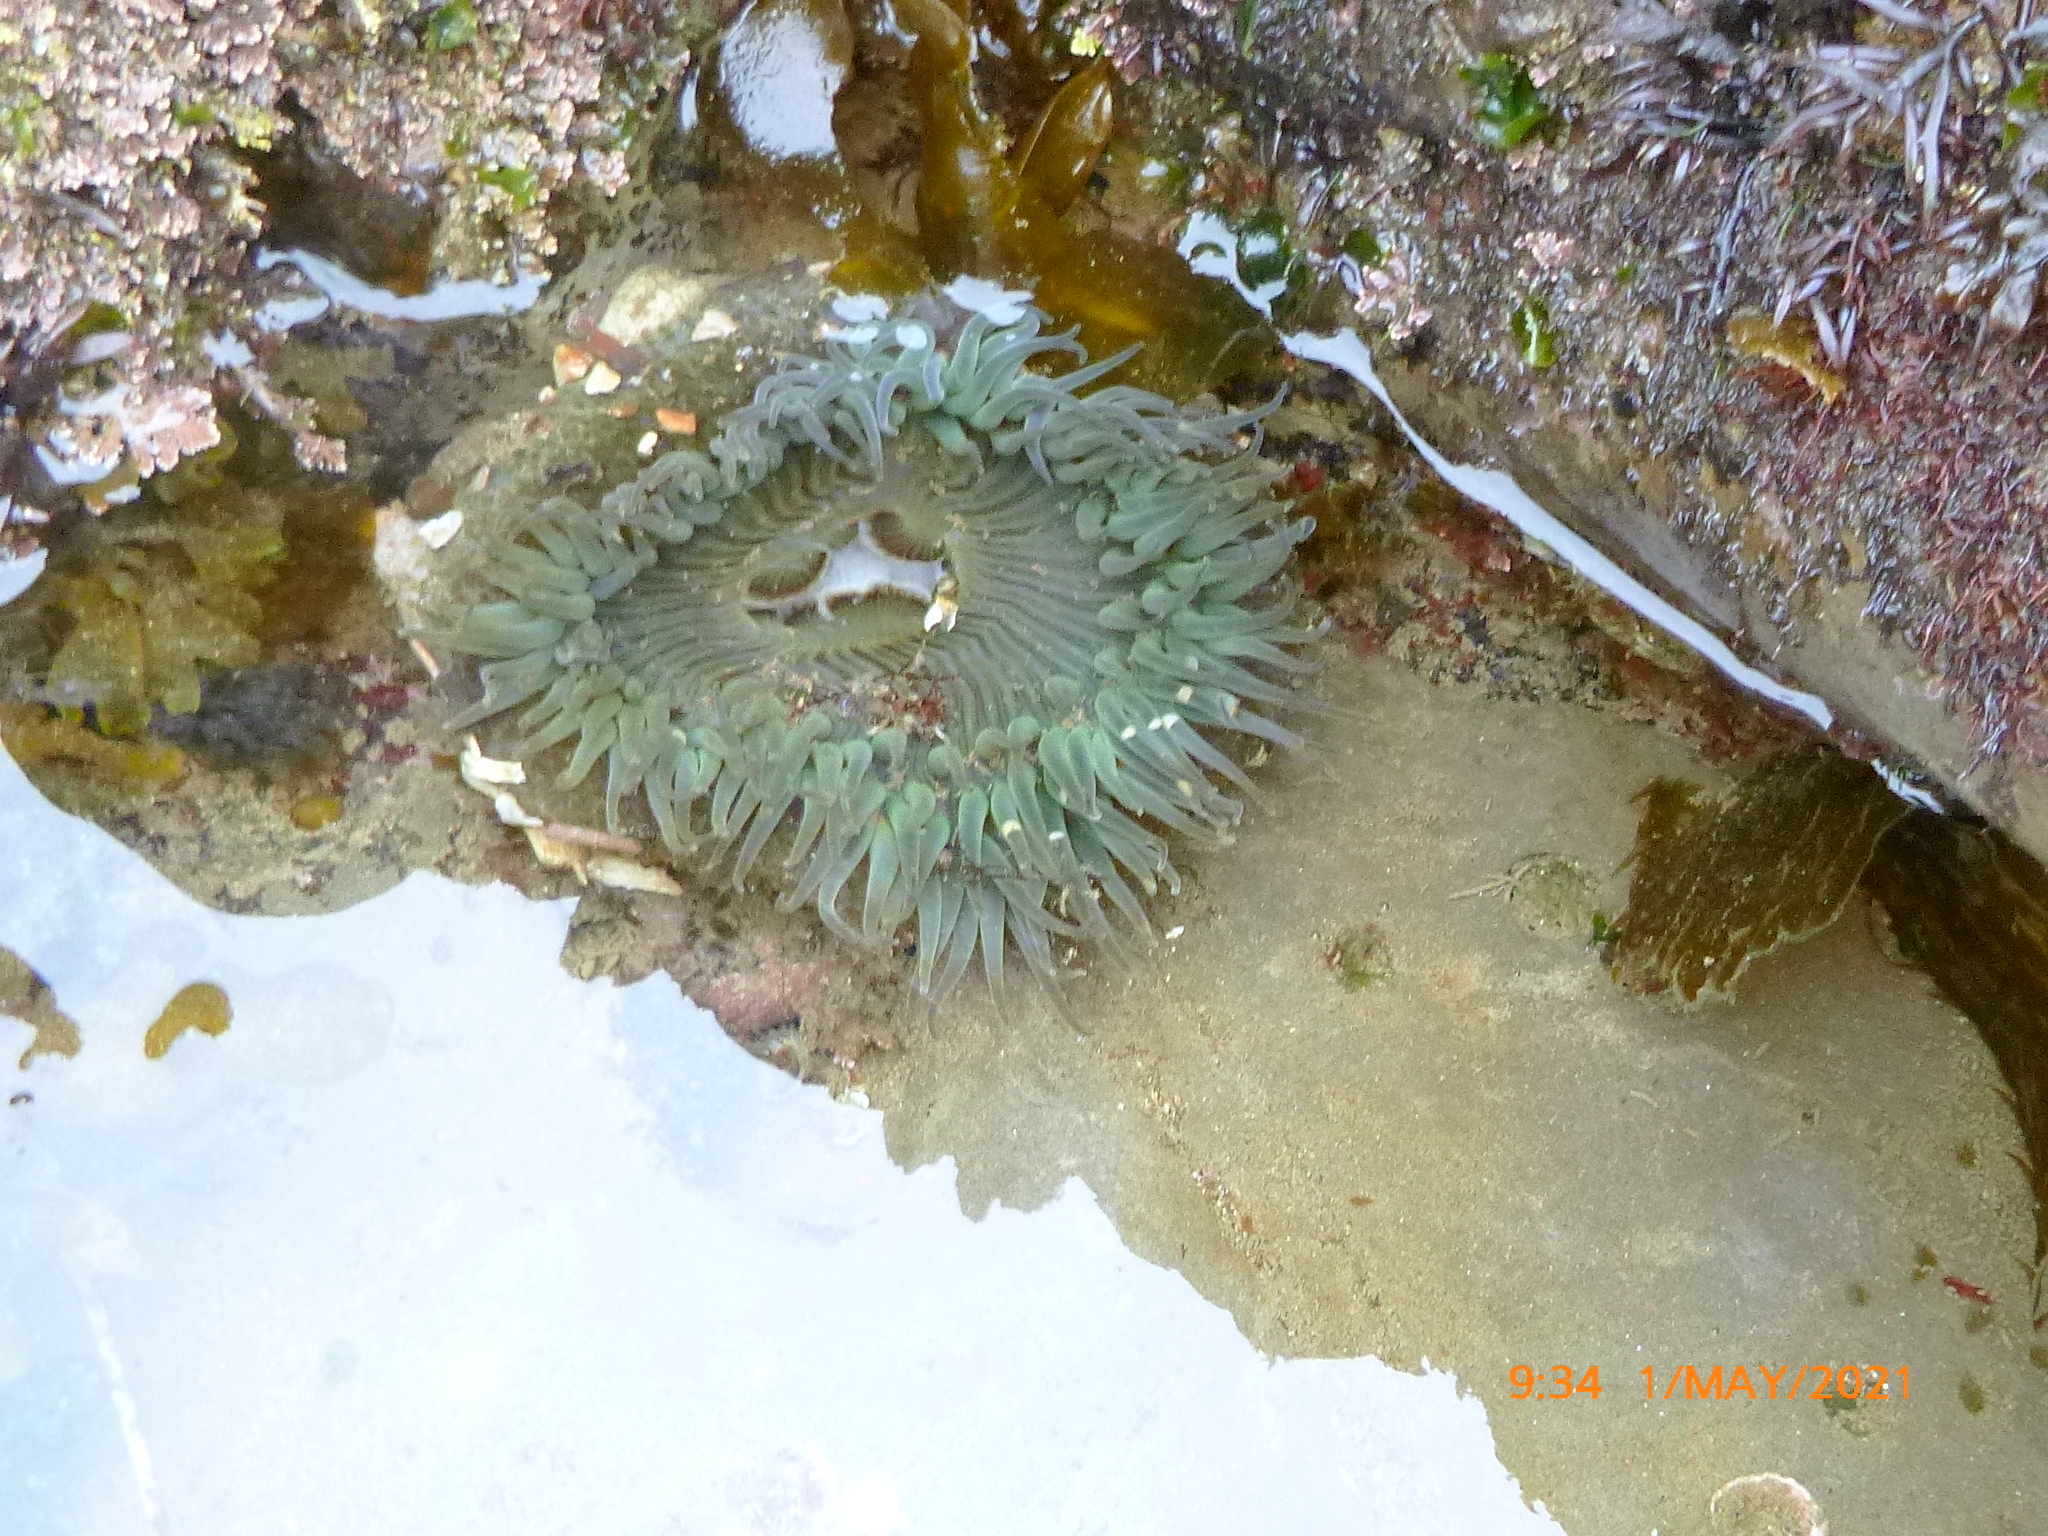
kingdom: Animalia
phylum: Cnidaria
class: Anthozoa
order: Actiniaria
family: Actiniidae
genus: Anthopleura
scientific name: Anthopleura sola
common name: Sun anemone
